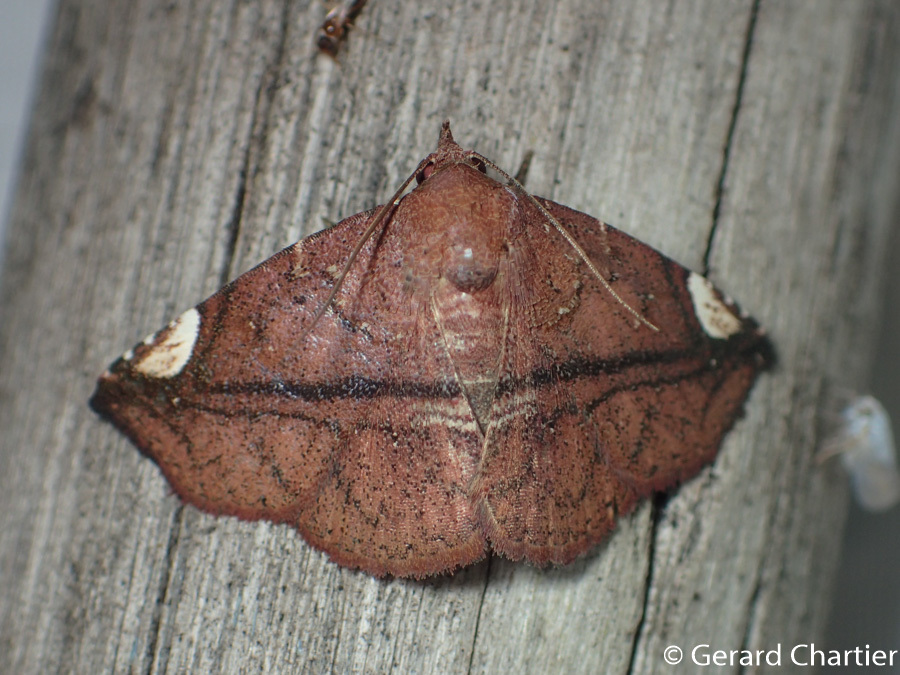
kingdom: Animalia
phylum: Arthropoda
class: Insecta
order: Lepidoptera
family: Erebidae
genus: Tamba
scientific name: Tamba nigrilineata
